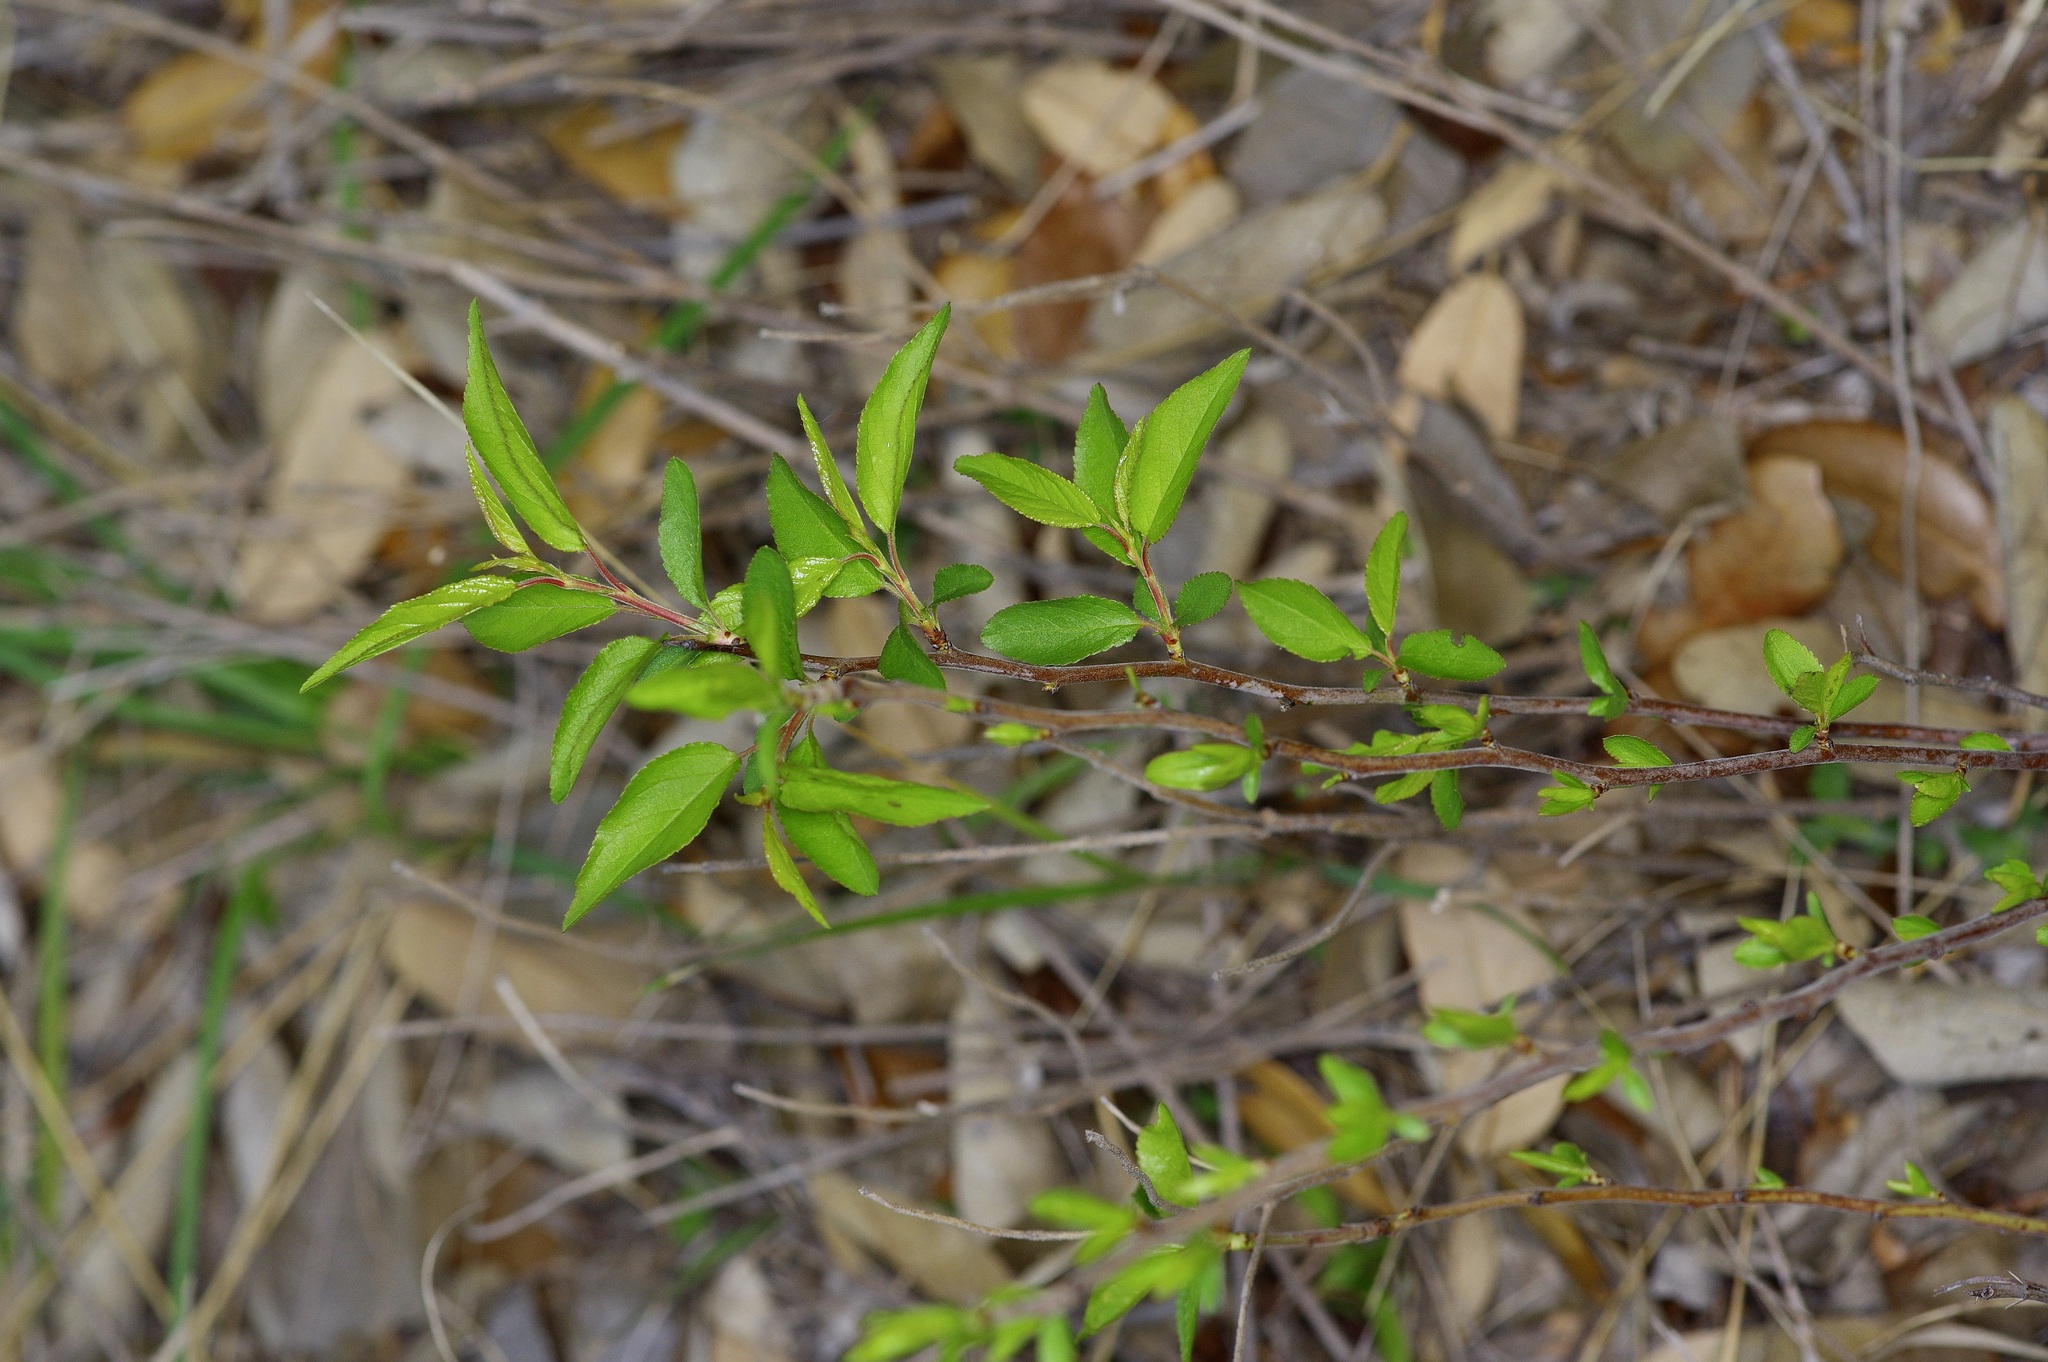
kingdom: Plantae
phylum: Tracheophyta
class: Magnoliopsida
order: Rosales
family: Rosaceae
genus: Prunus
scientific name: Prunus murrayana
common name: Murray plum
